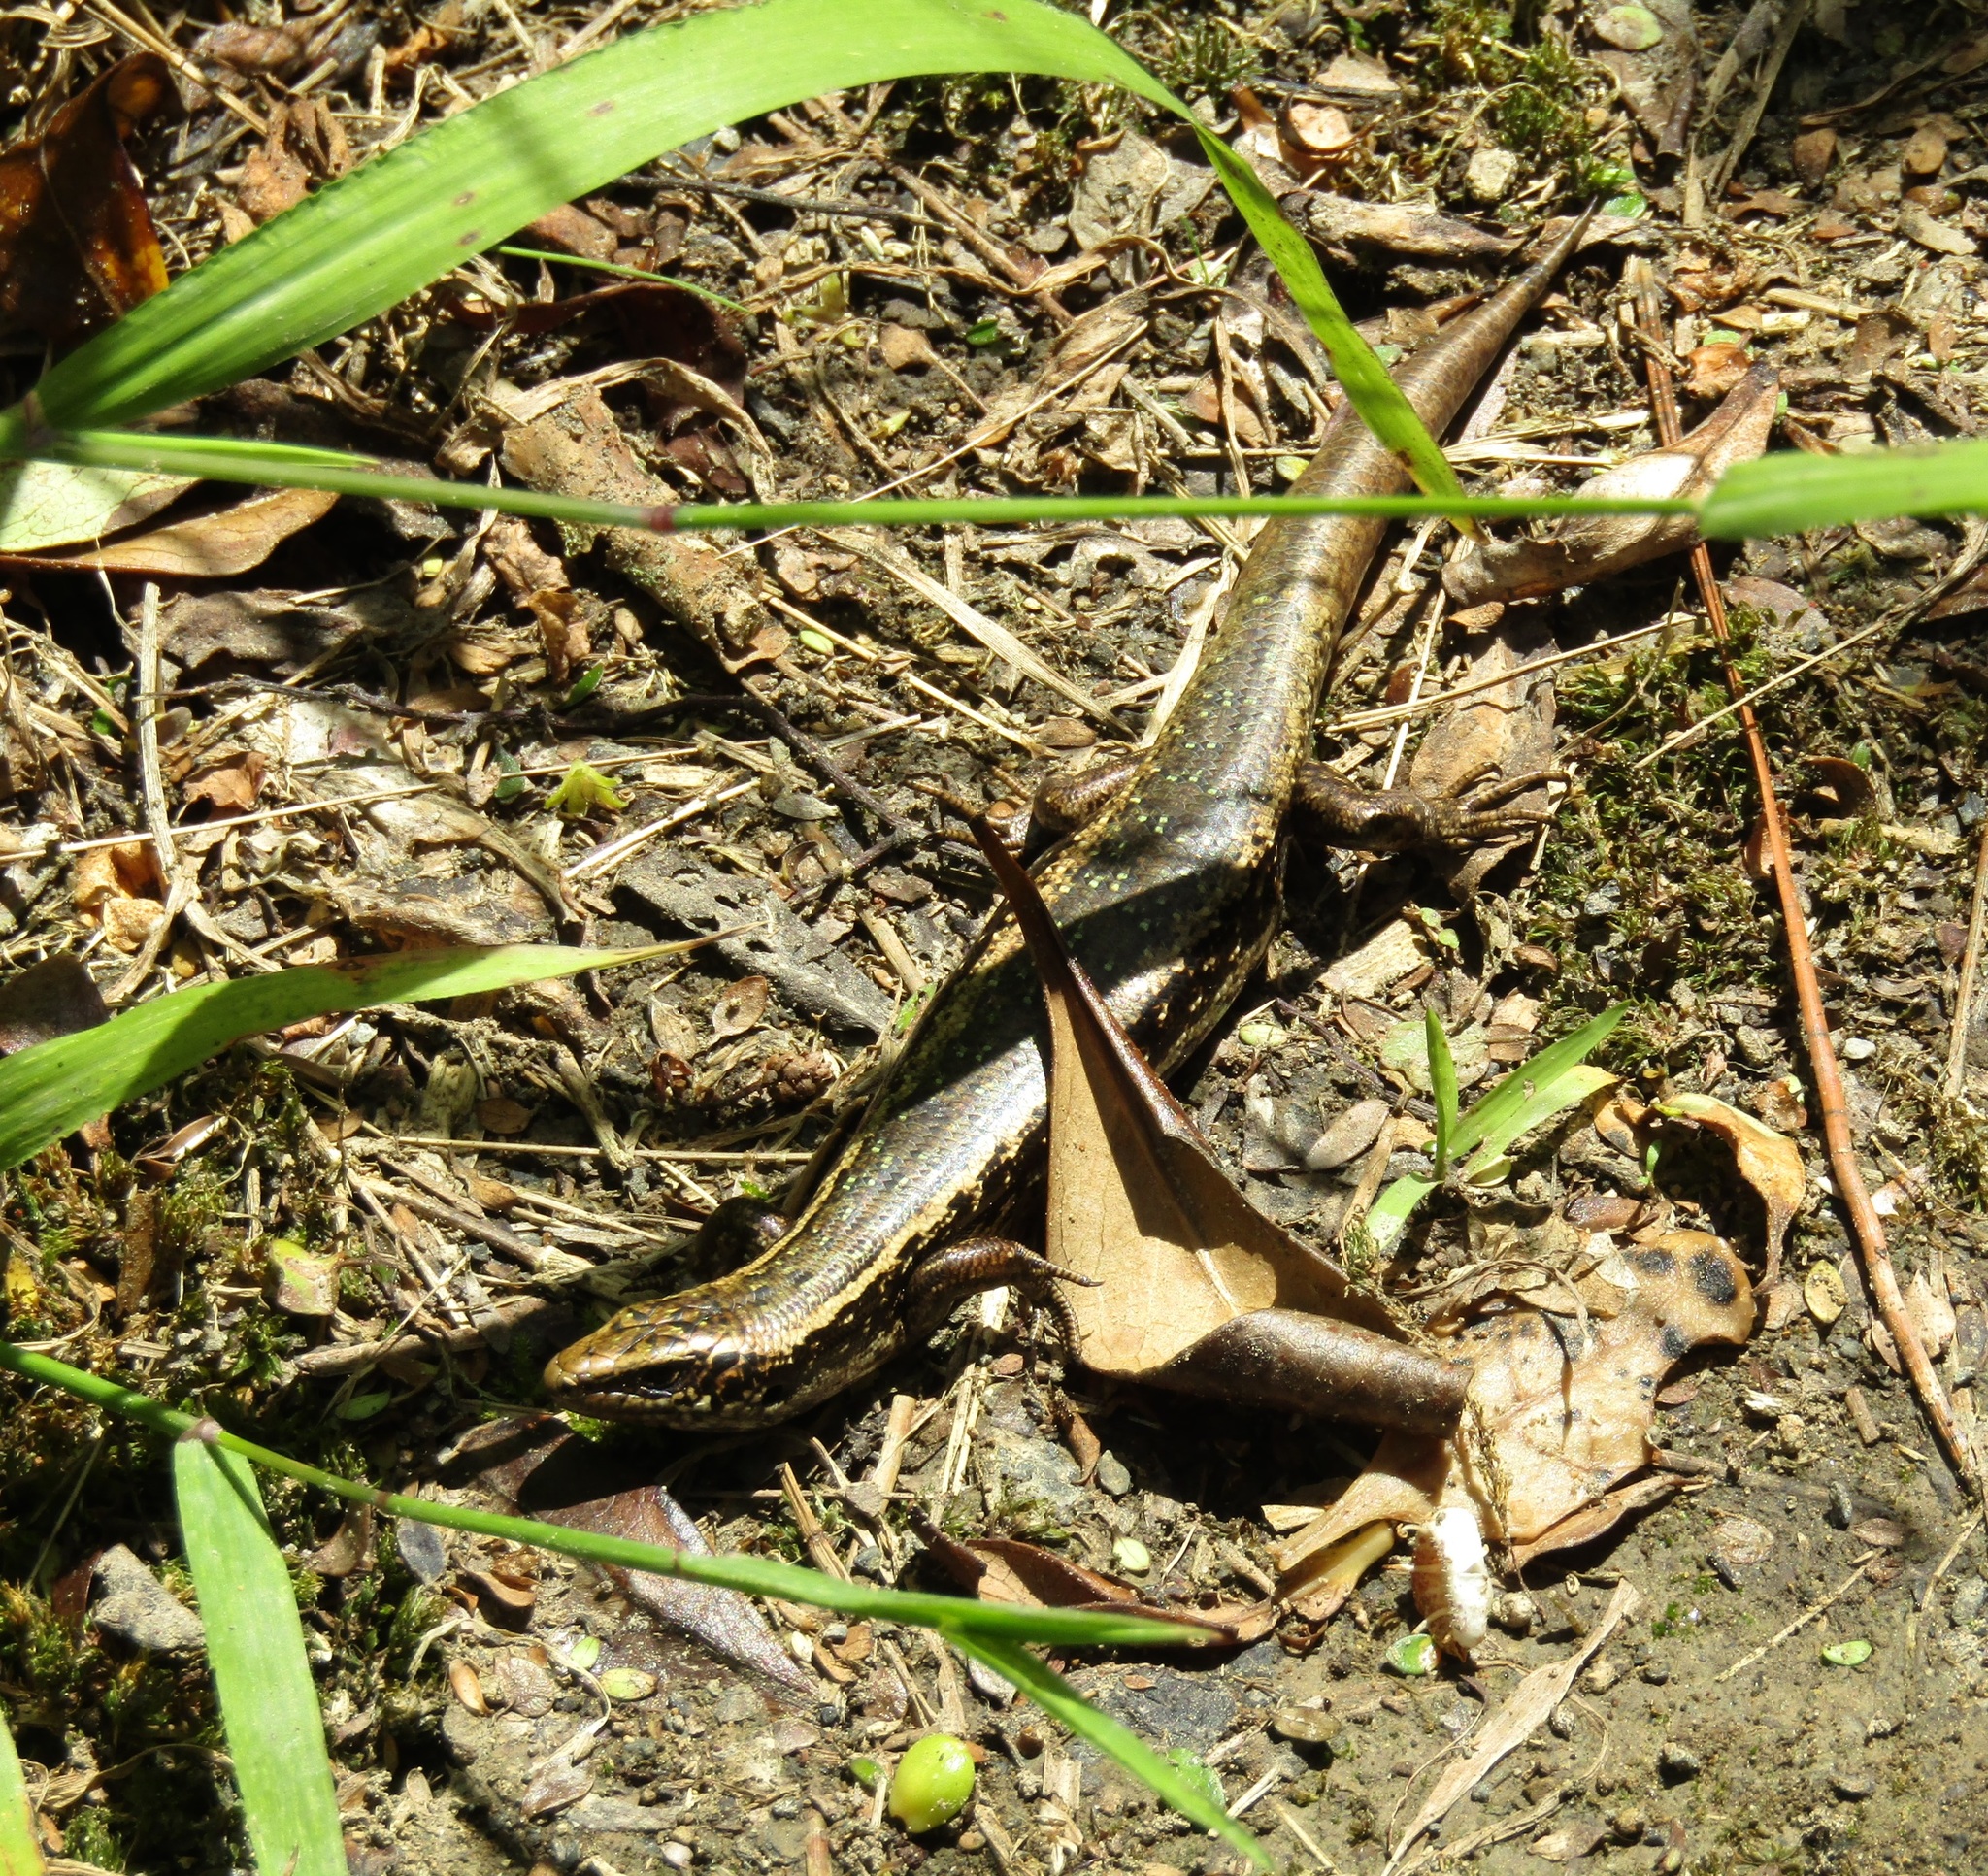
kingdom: Animalia
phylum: Chordata
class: Squamata
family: Scincidae
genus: Oligosoma
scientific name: Oligosoma kokowai
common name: Northern spotted skink
